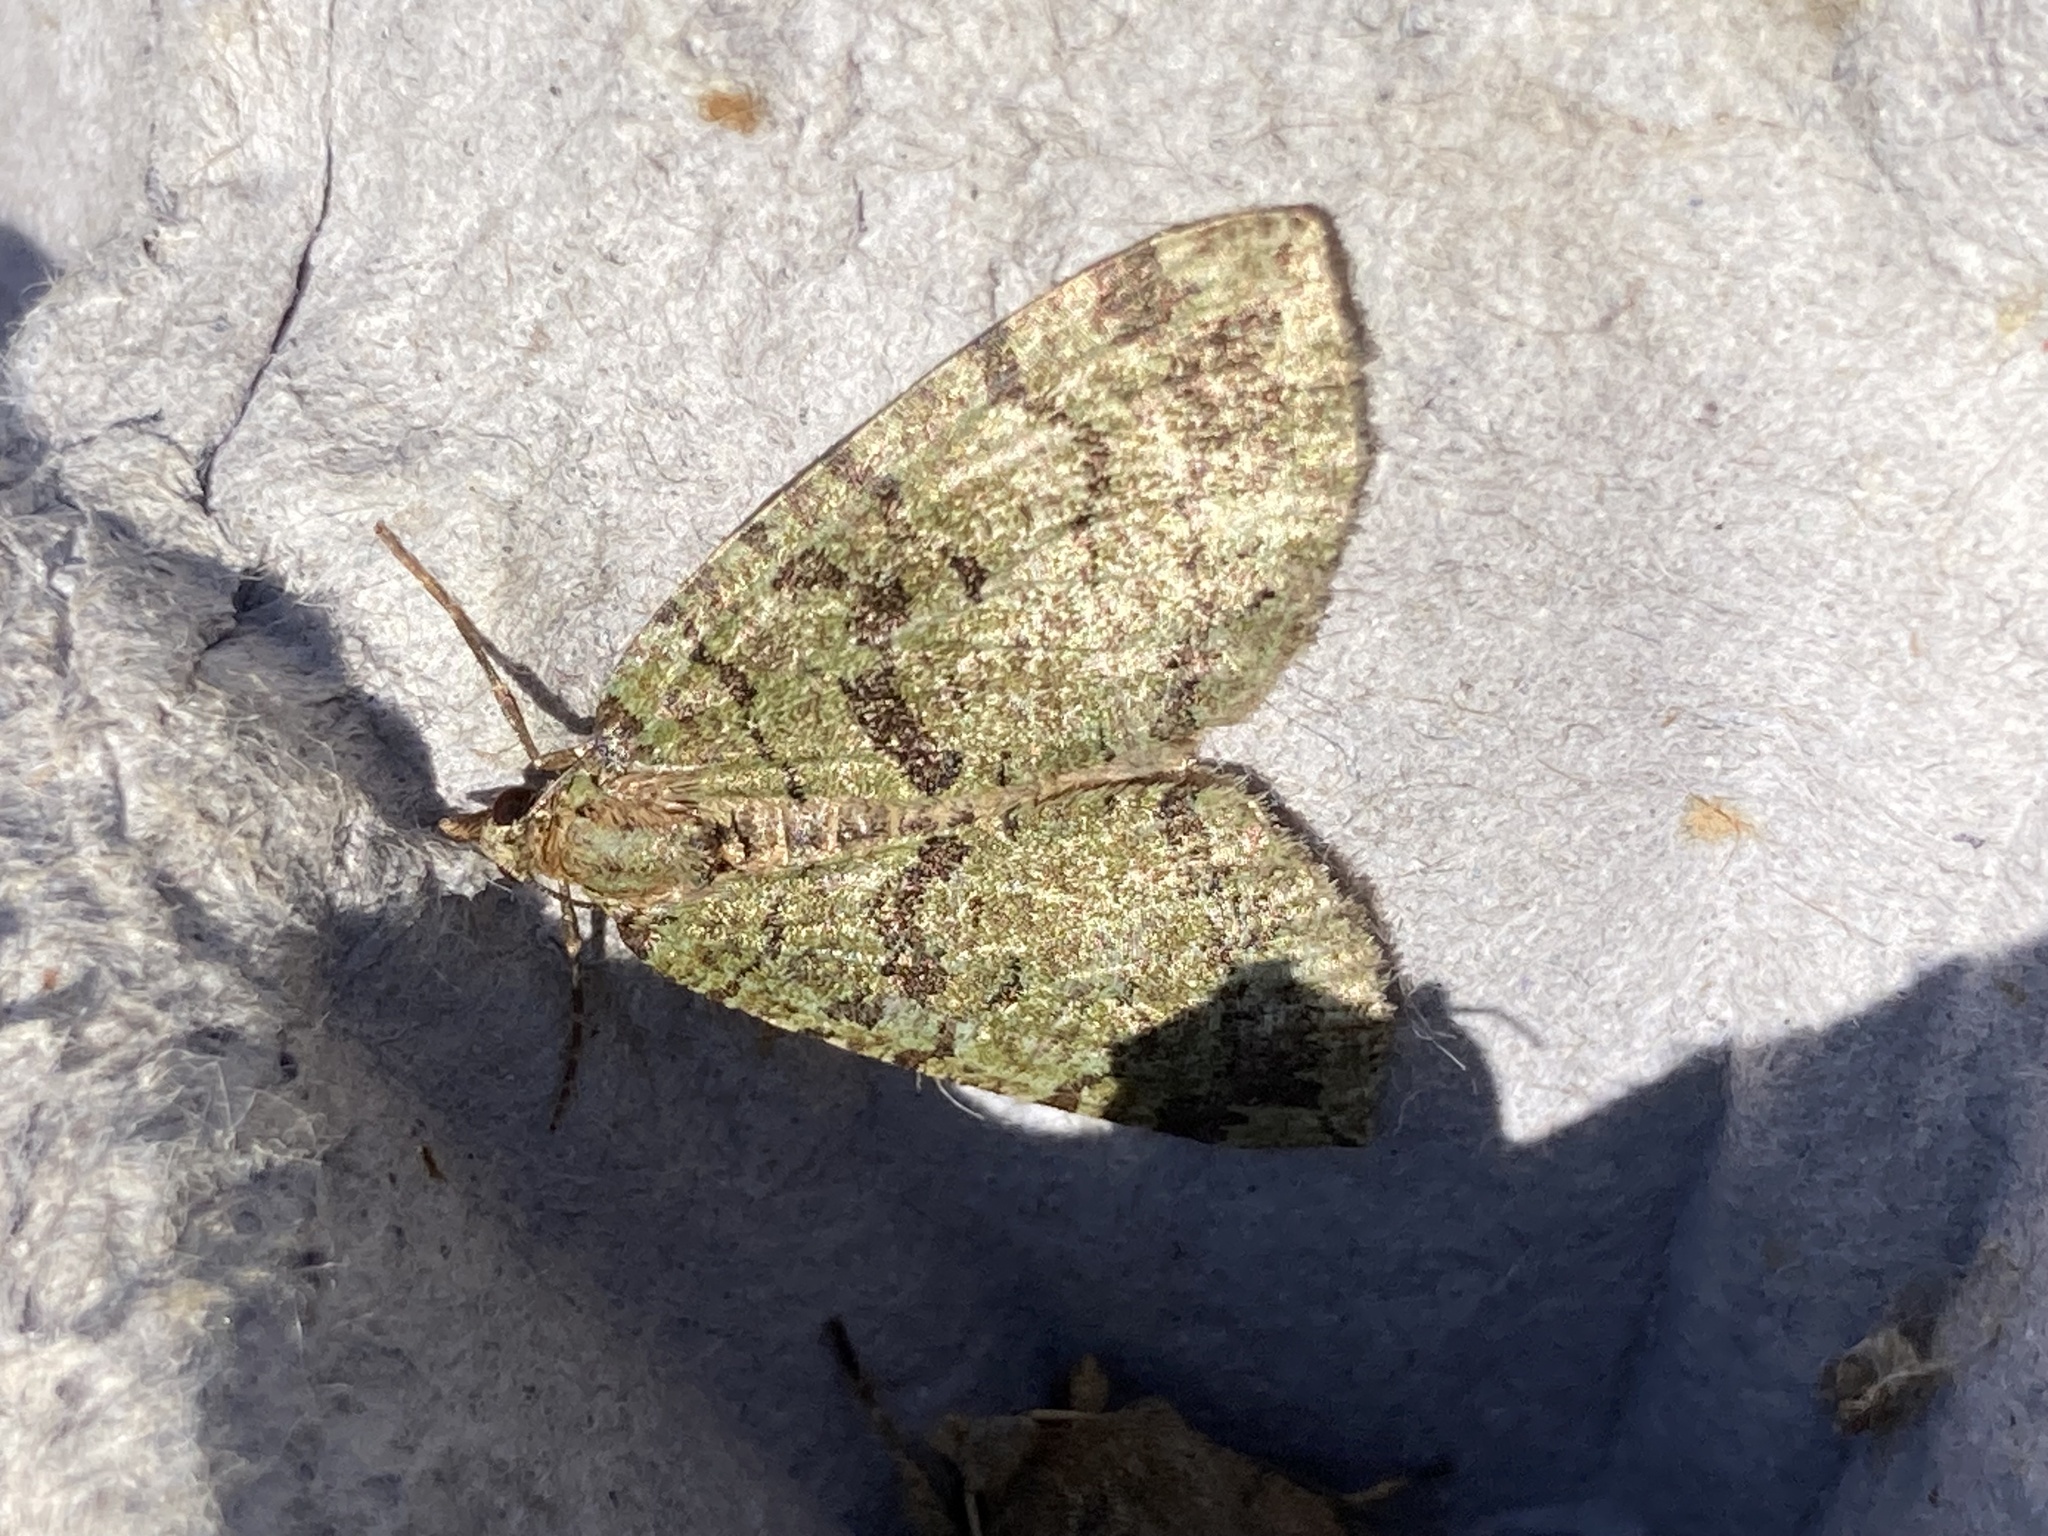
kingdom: Animalia
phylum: Arthropoda
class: Insecta
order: Lepidoptera
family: Geometridae
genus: Hydriomena
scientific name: Hydriomena furcata
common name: July highflyer
